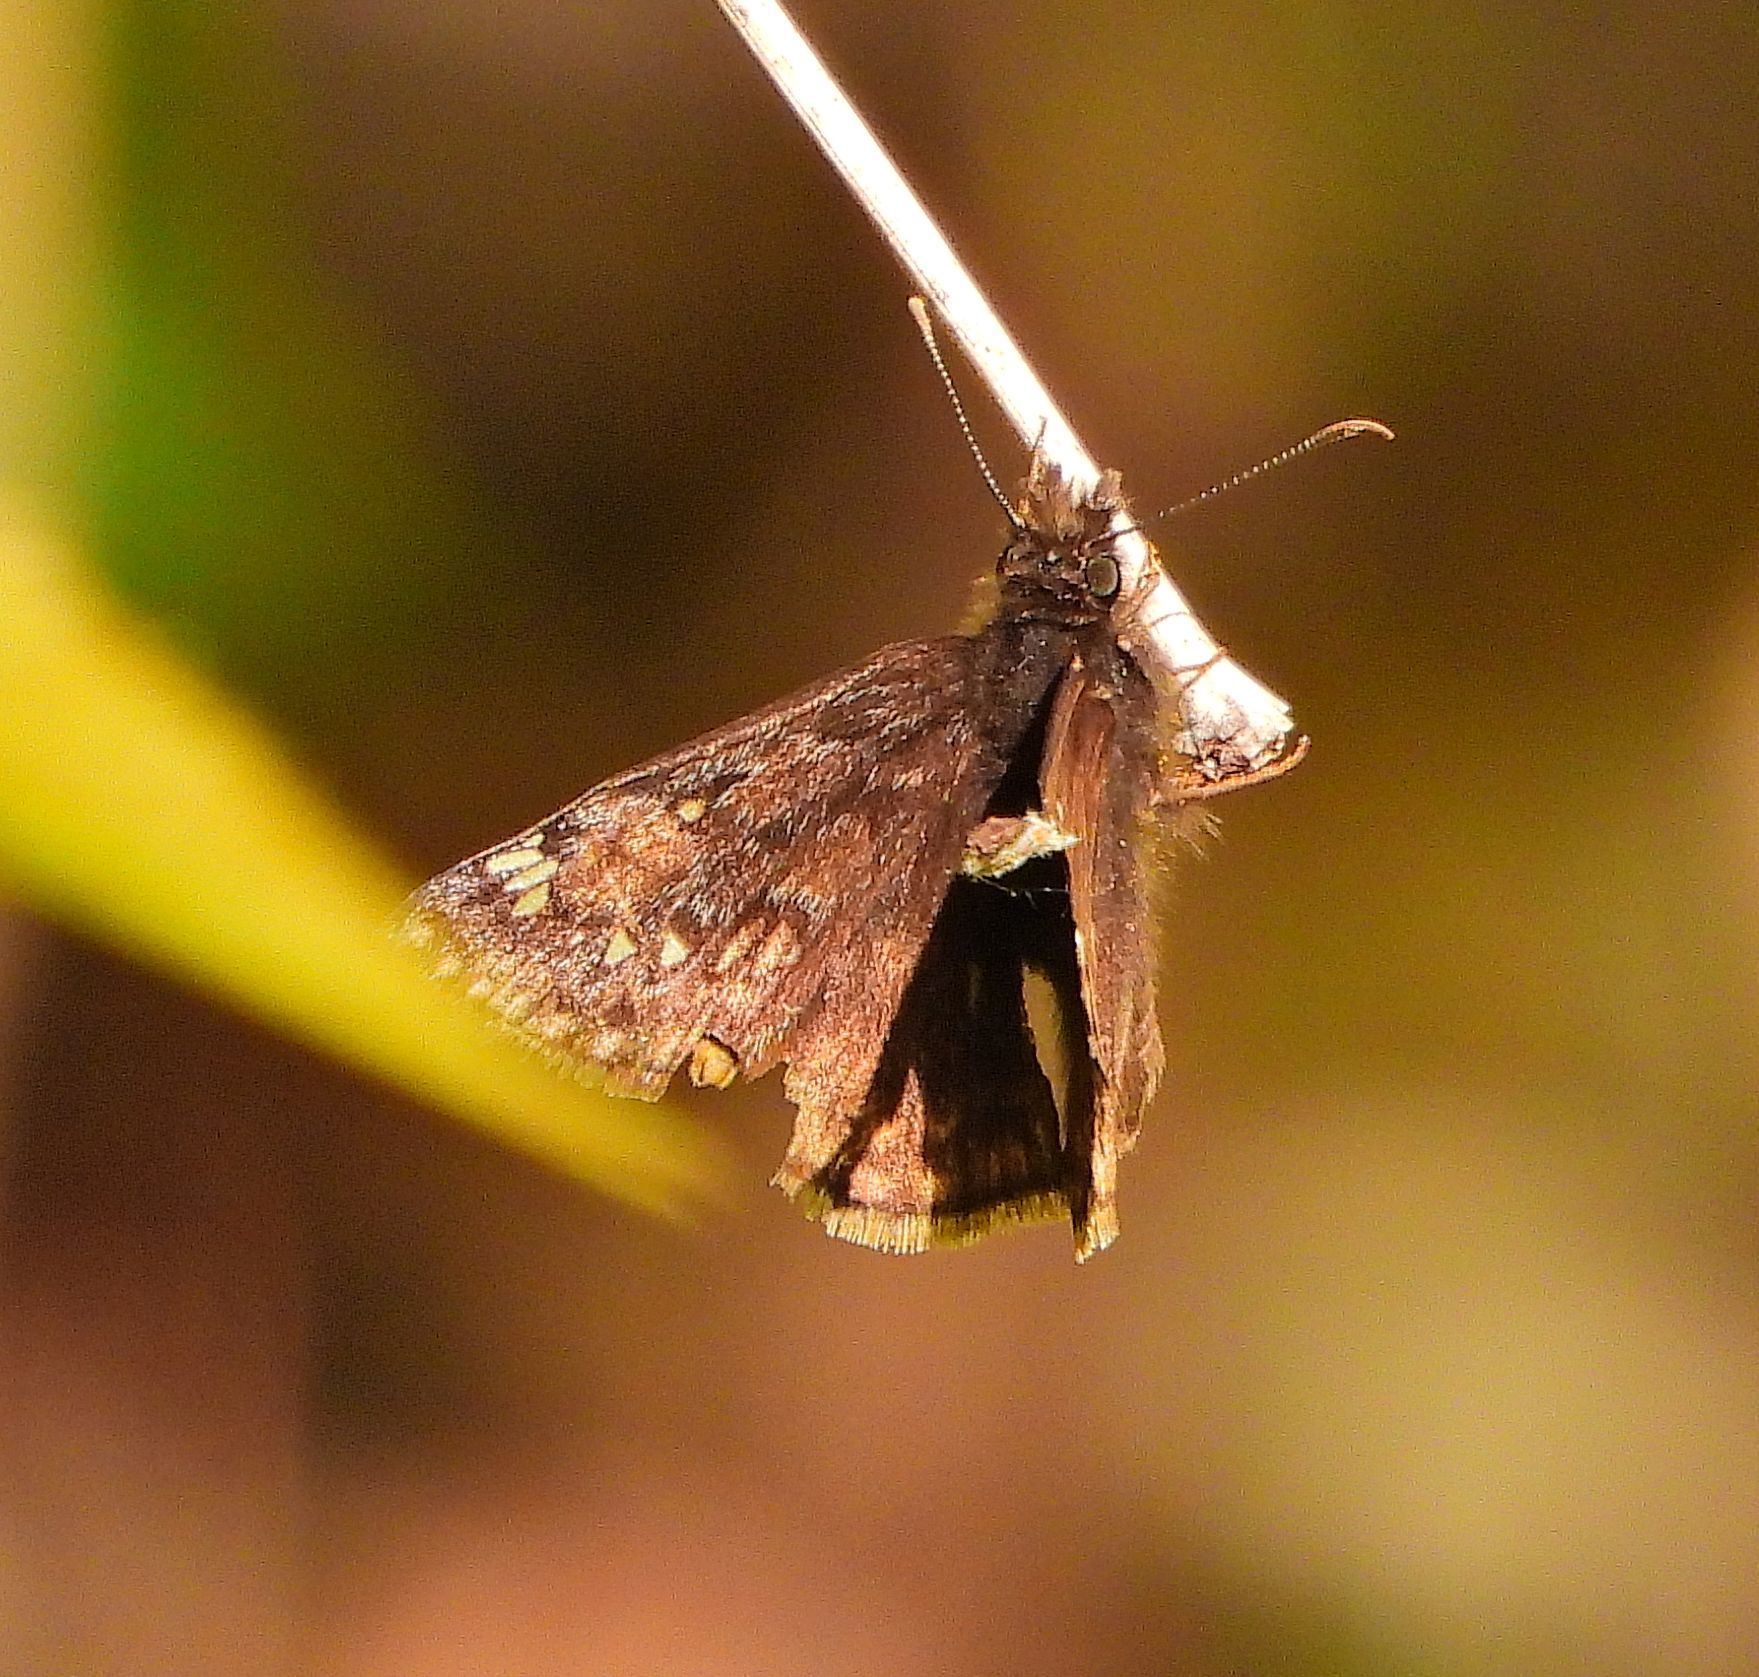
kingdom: Animalia
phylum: Arthropoda
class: Insecta
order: Lepidoptera
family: Hesperiidae
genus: Erynnis
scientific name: Erynnis juvenalis
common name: Juvenal's duskywing
